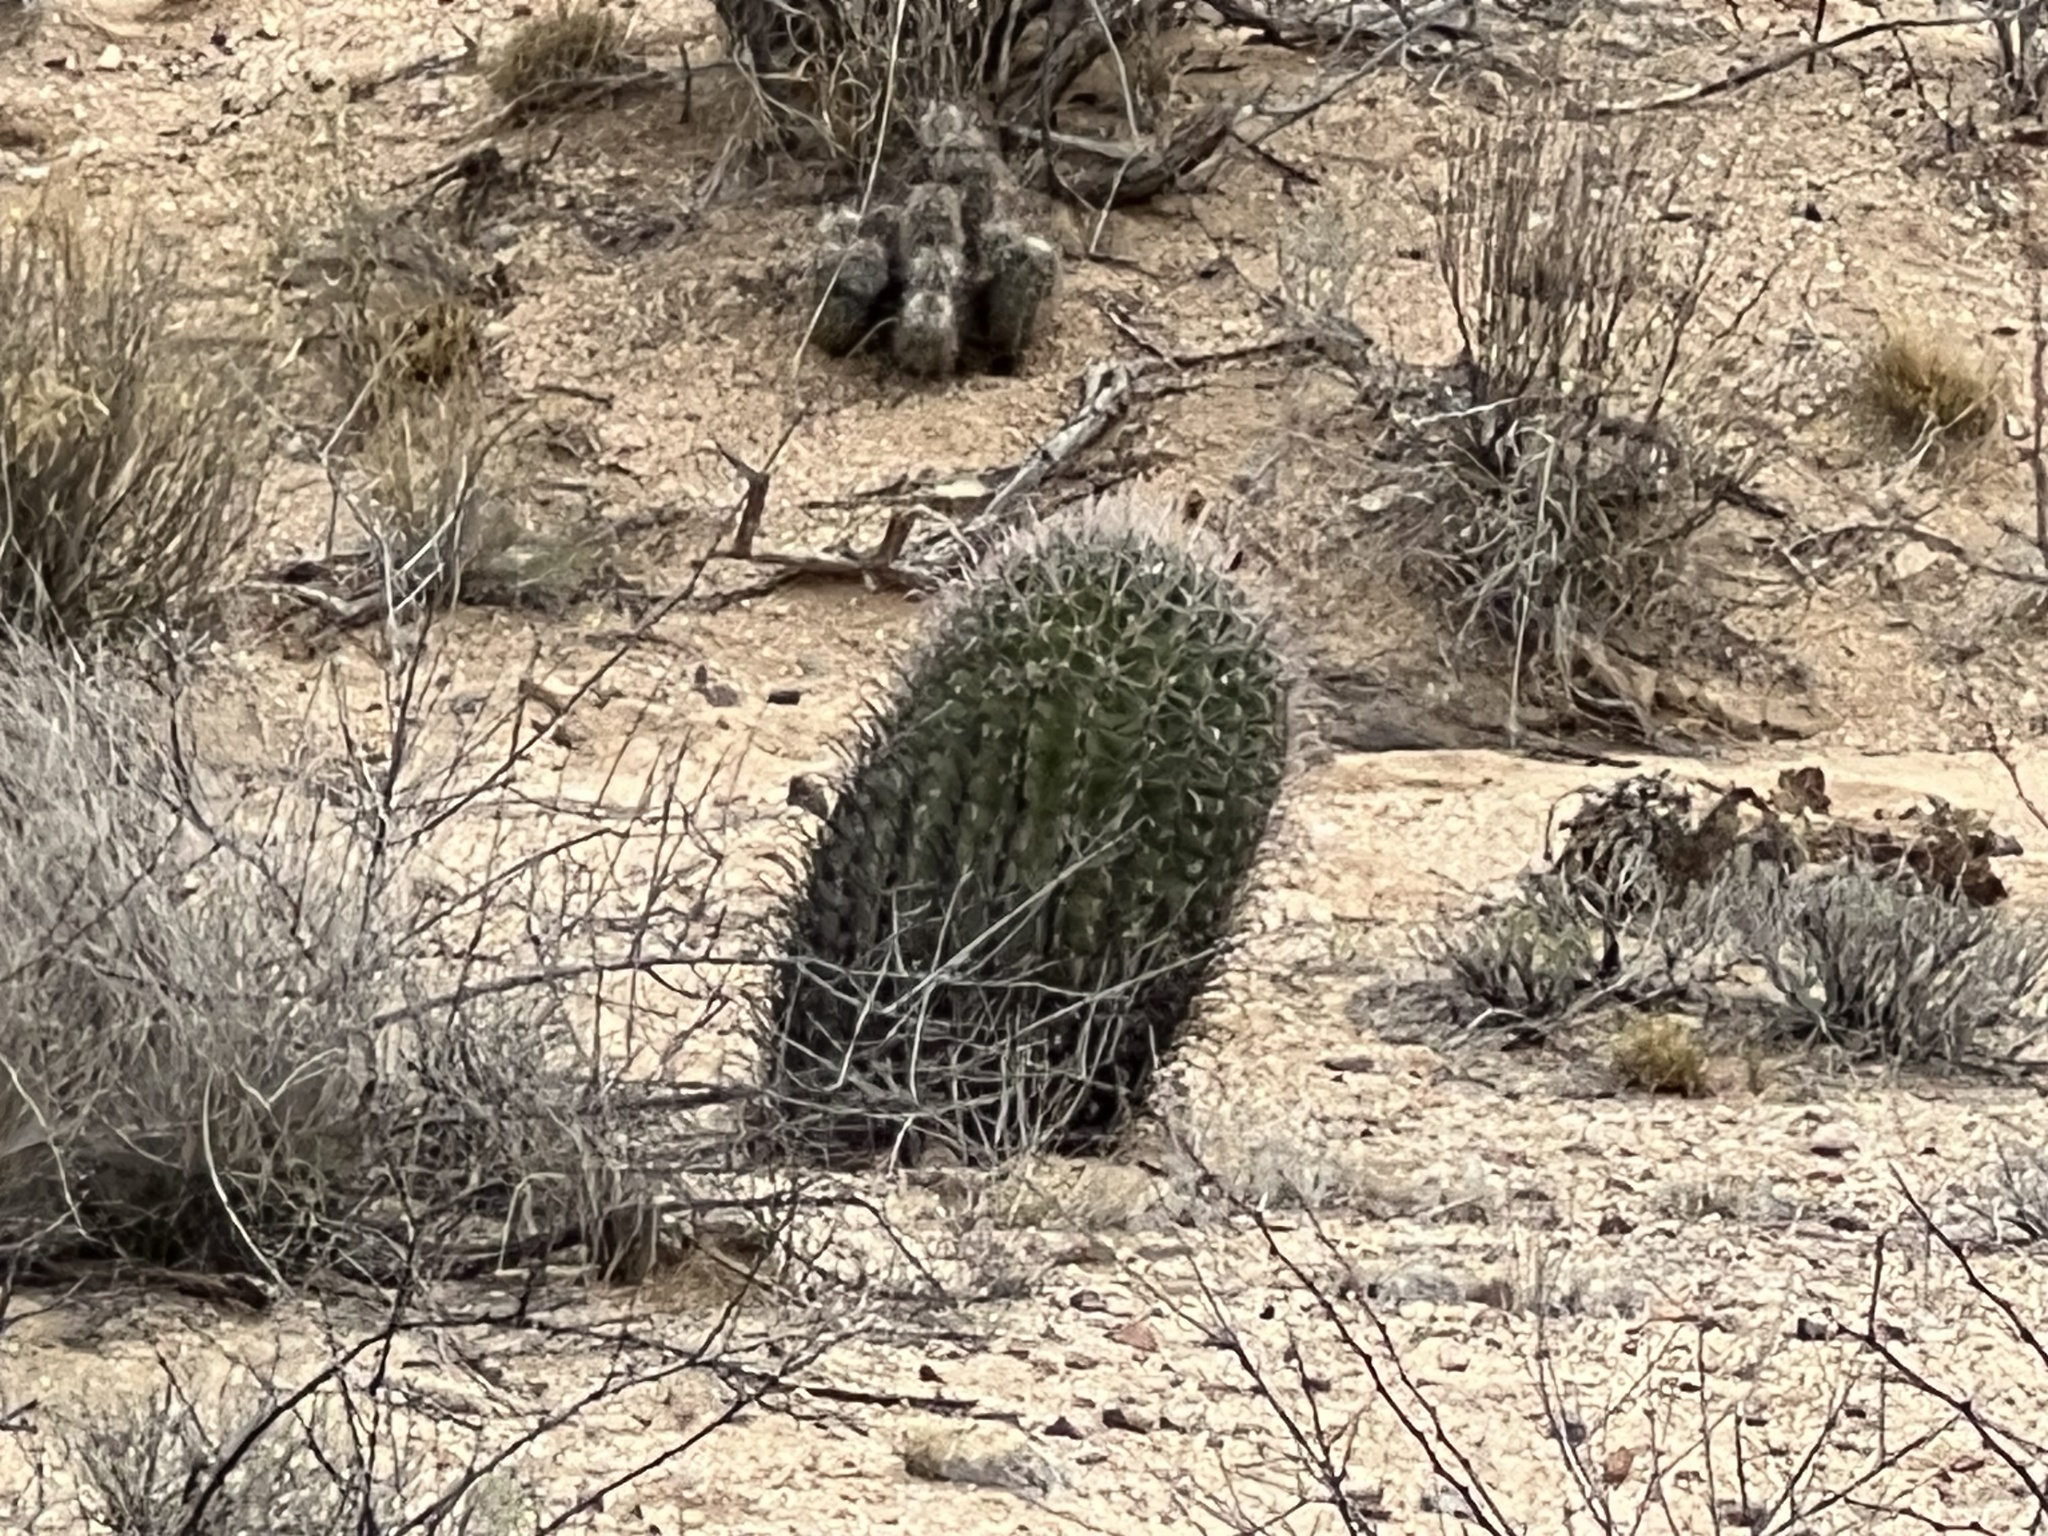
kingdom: Plantae
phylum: Tracheophyta
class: Magnoliopsida
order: Caryophyllales
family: Cactaceae
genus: Ferocactus
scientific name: Ferocactus wislizeni
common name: Candy barrel cactus
